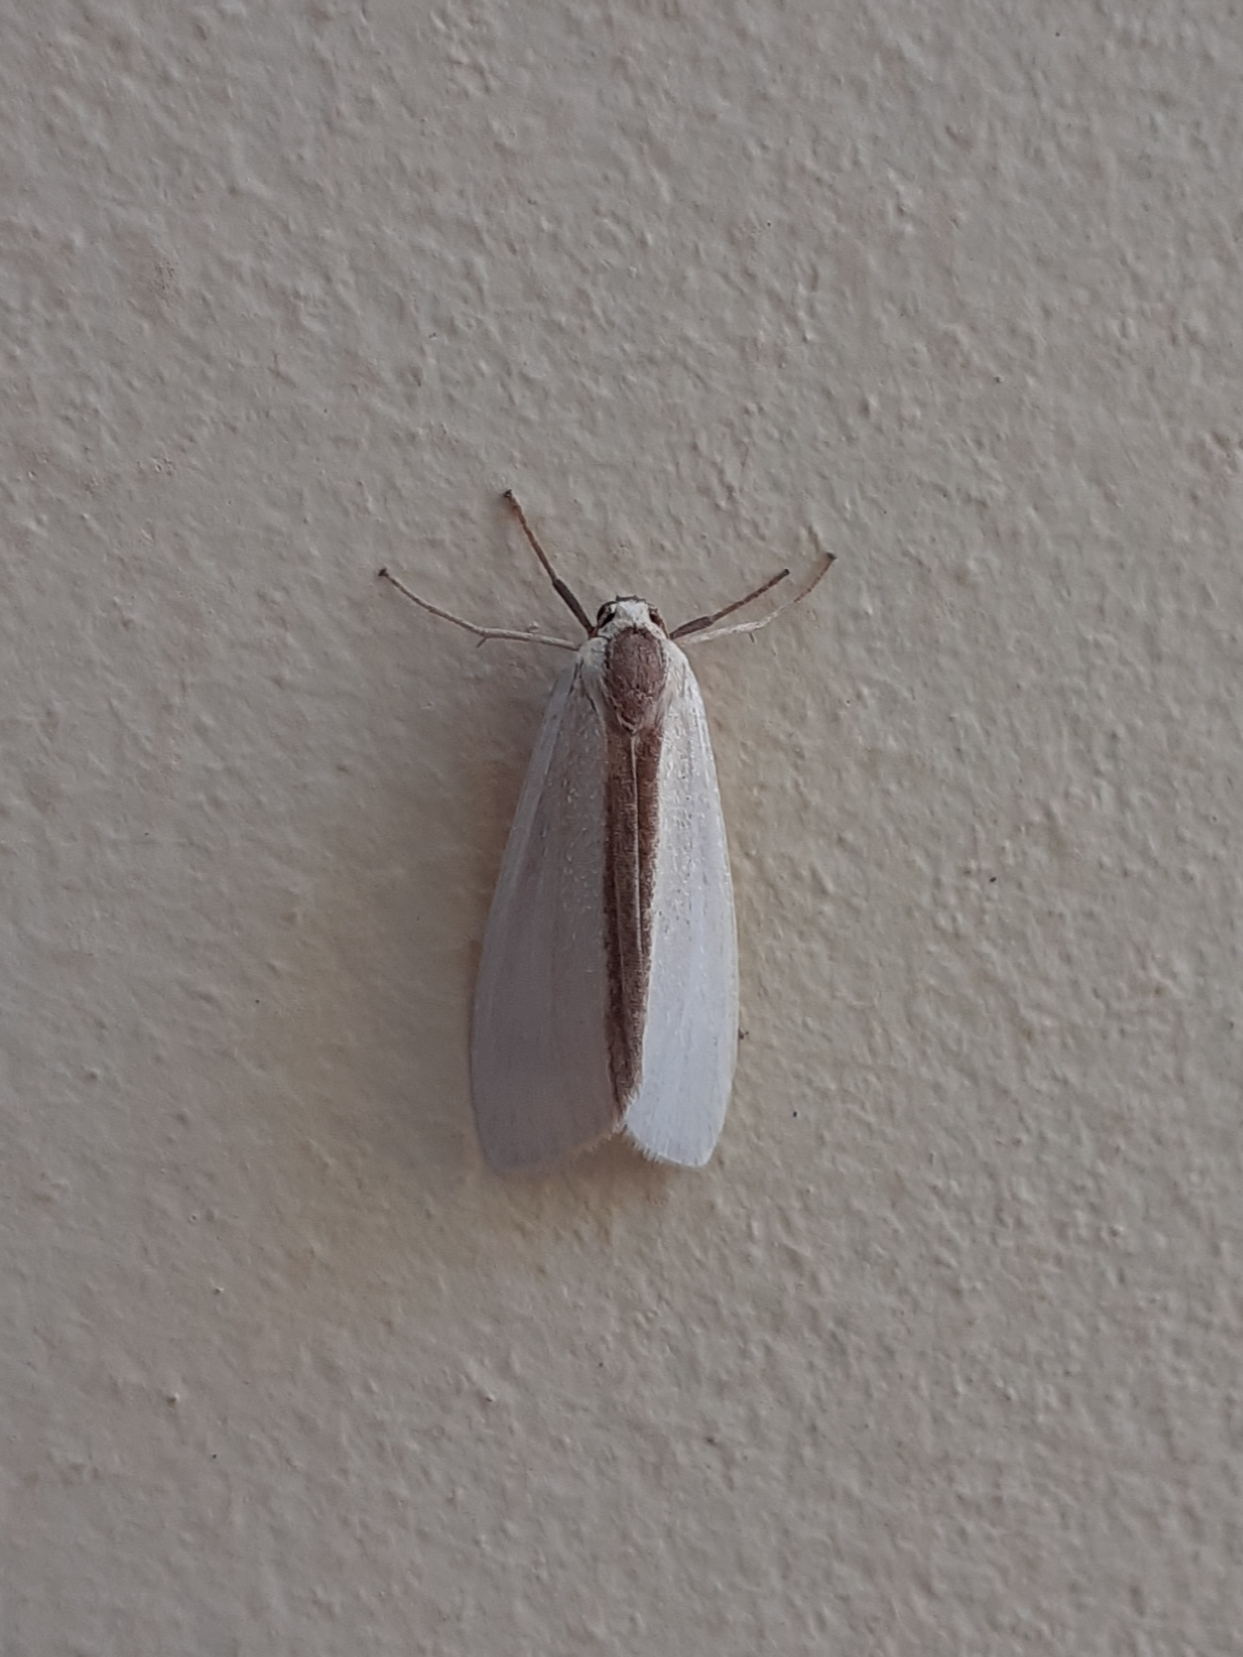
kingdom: Animalia
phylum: Arthropoda
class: Insecta
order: Lepidoptera
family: Erebidae
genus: Agylla
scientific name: Agylla separata
